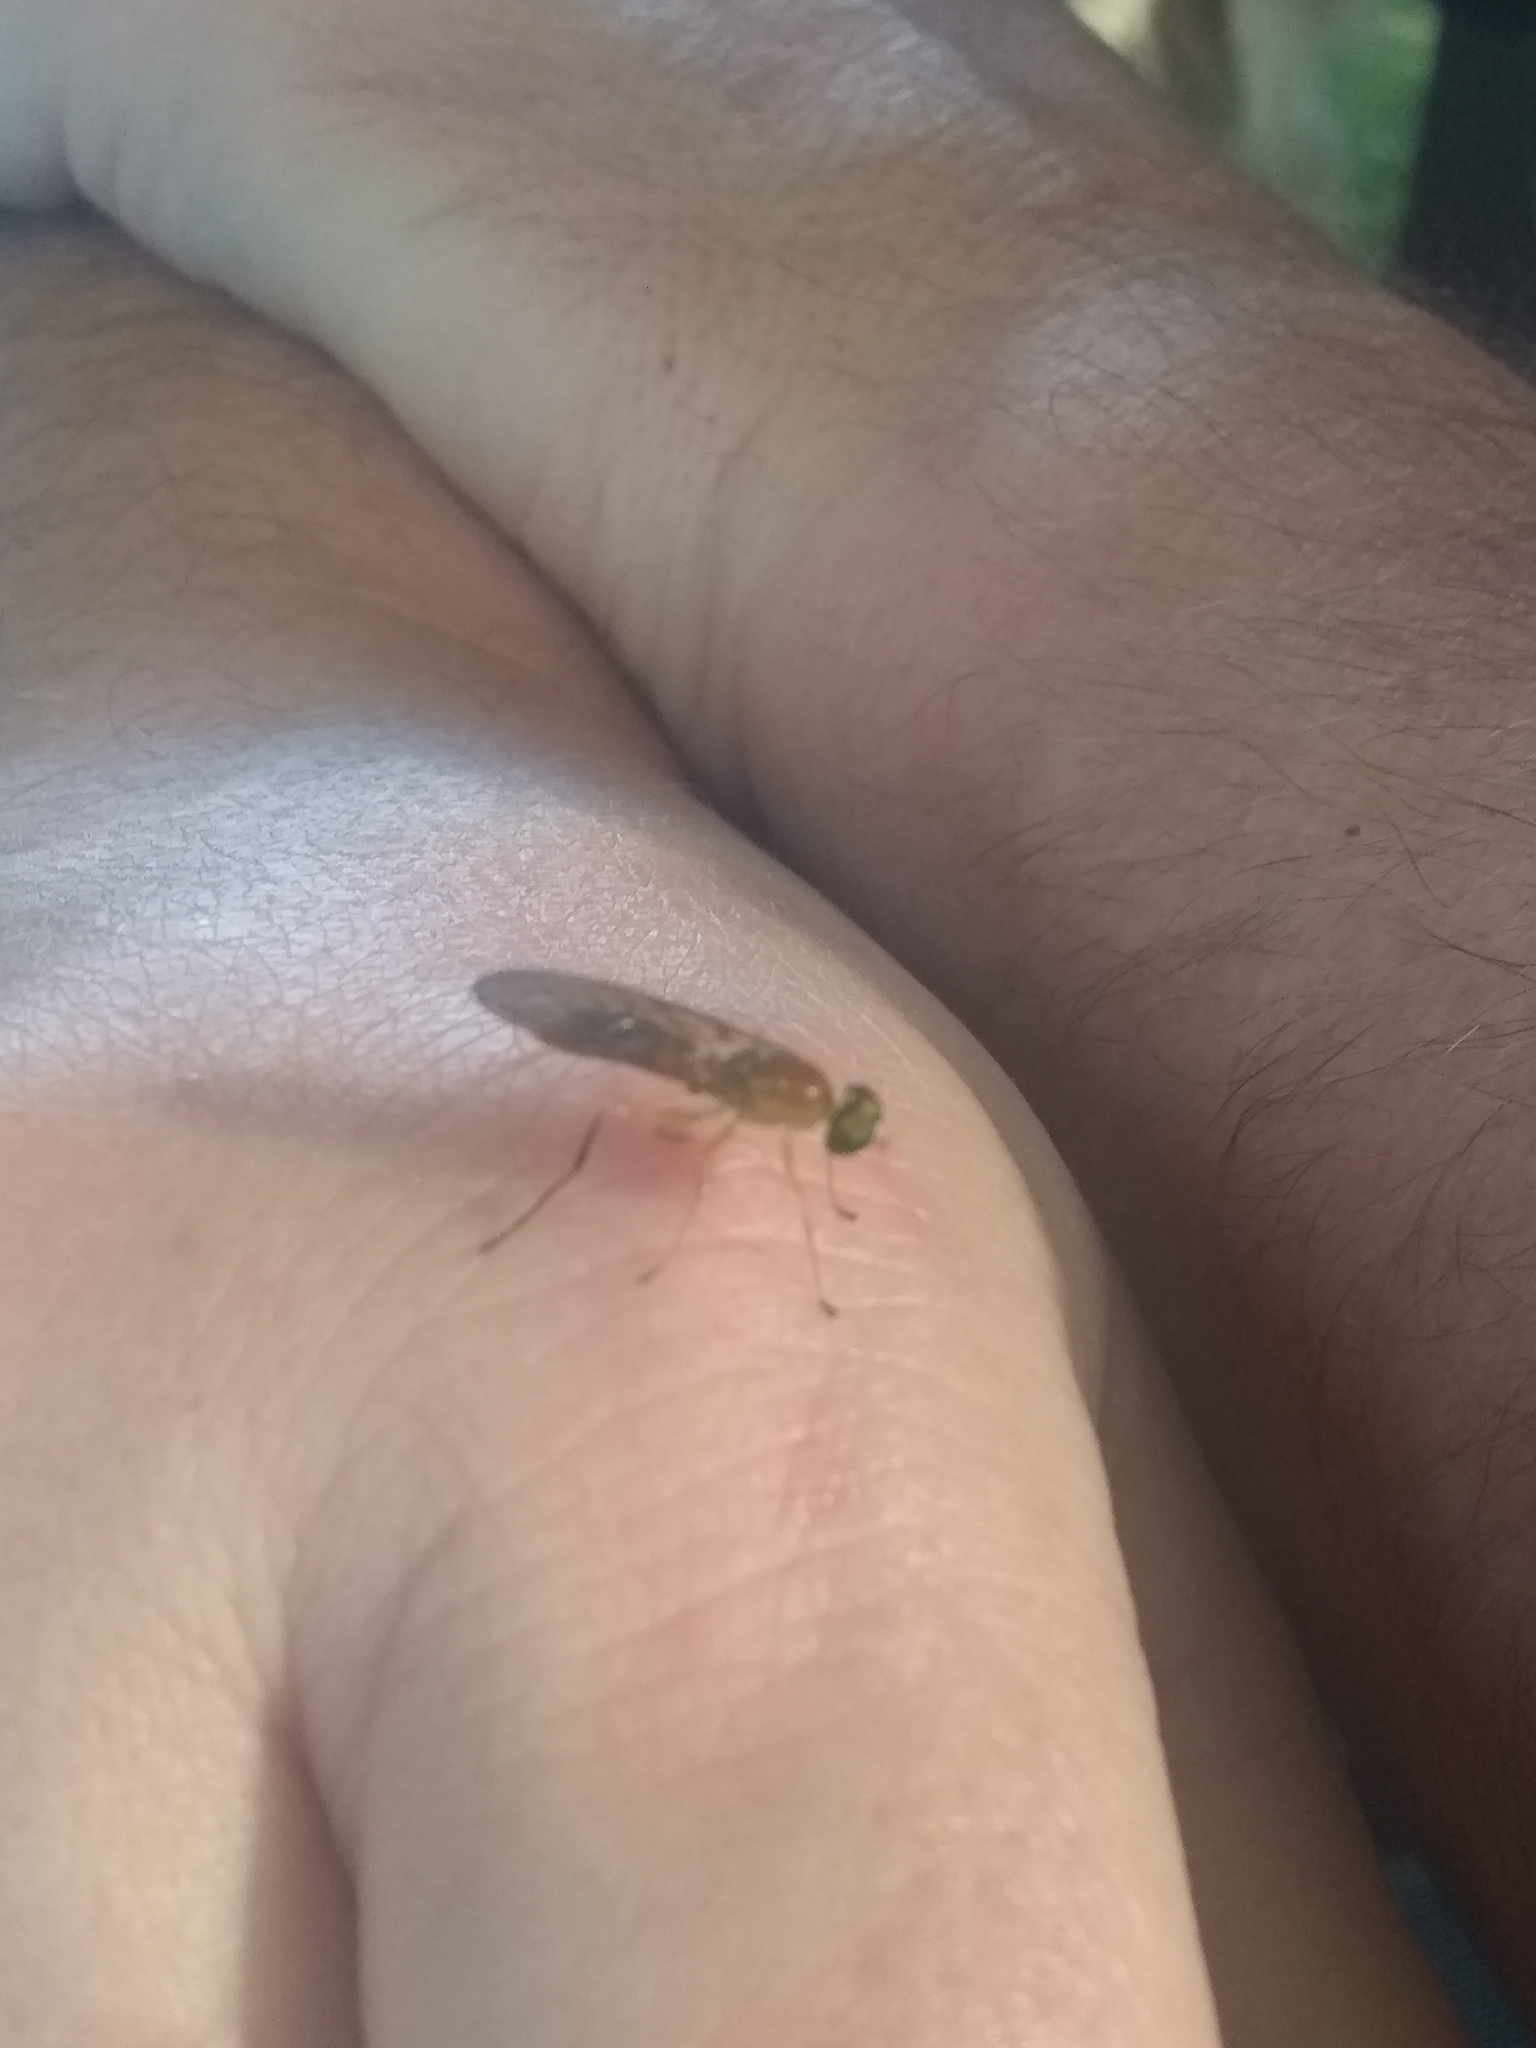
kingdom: Animalia
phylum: Arthropoda
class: Insecta
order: Diptera
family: Stratiomyidae
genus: Ptecticus
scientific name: Ptecticus trivittatus
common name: Compost fly
